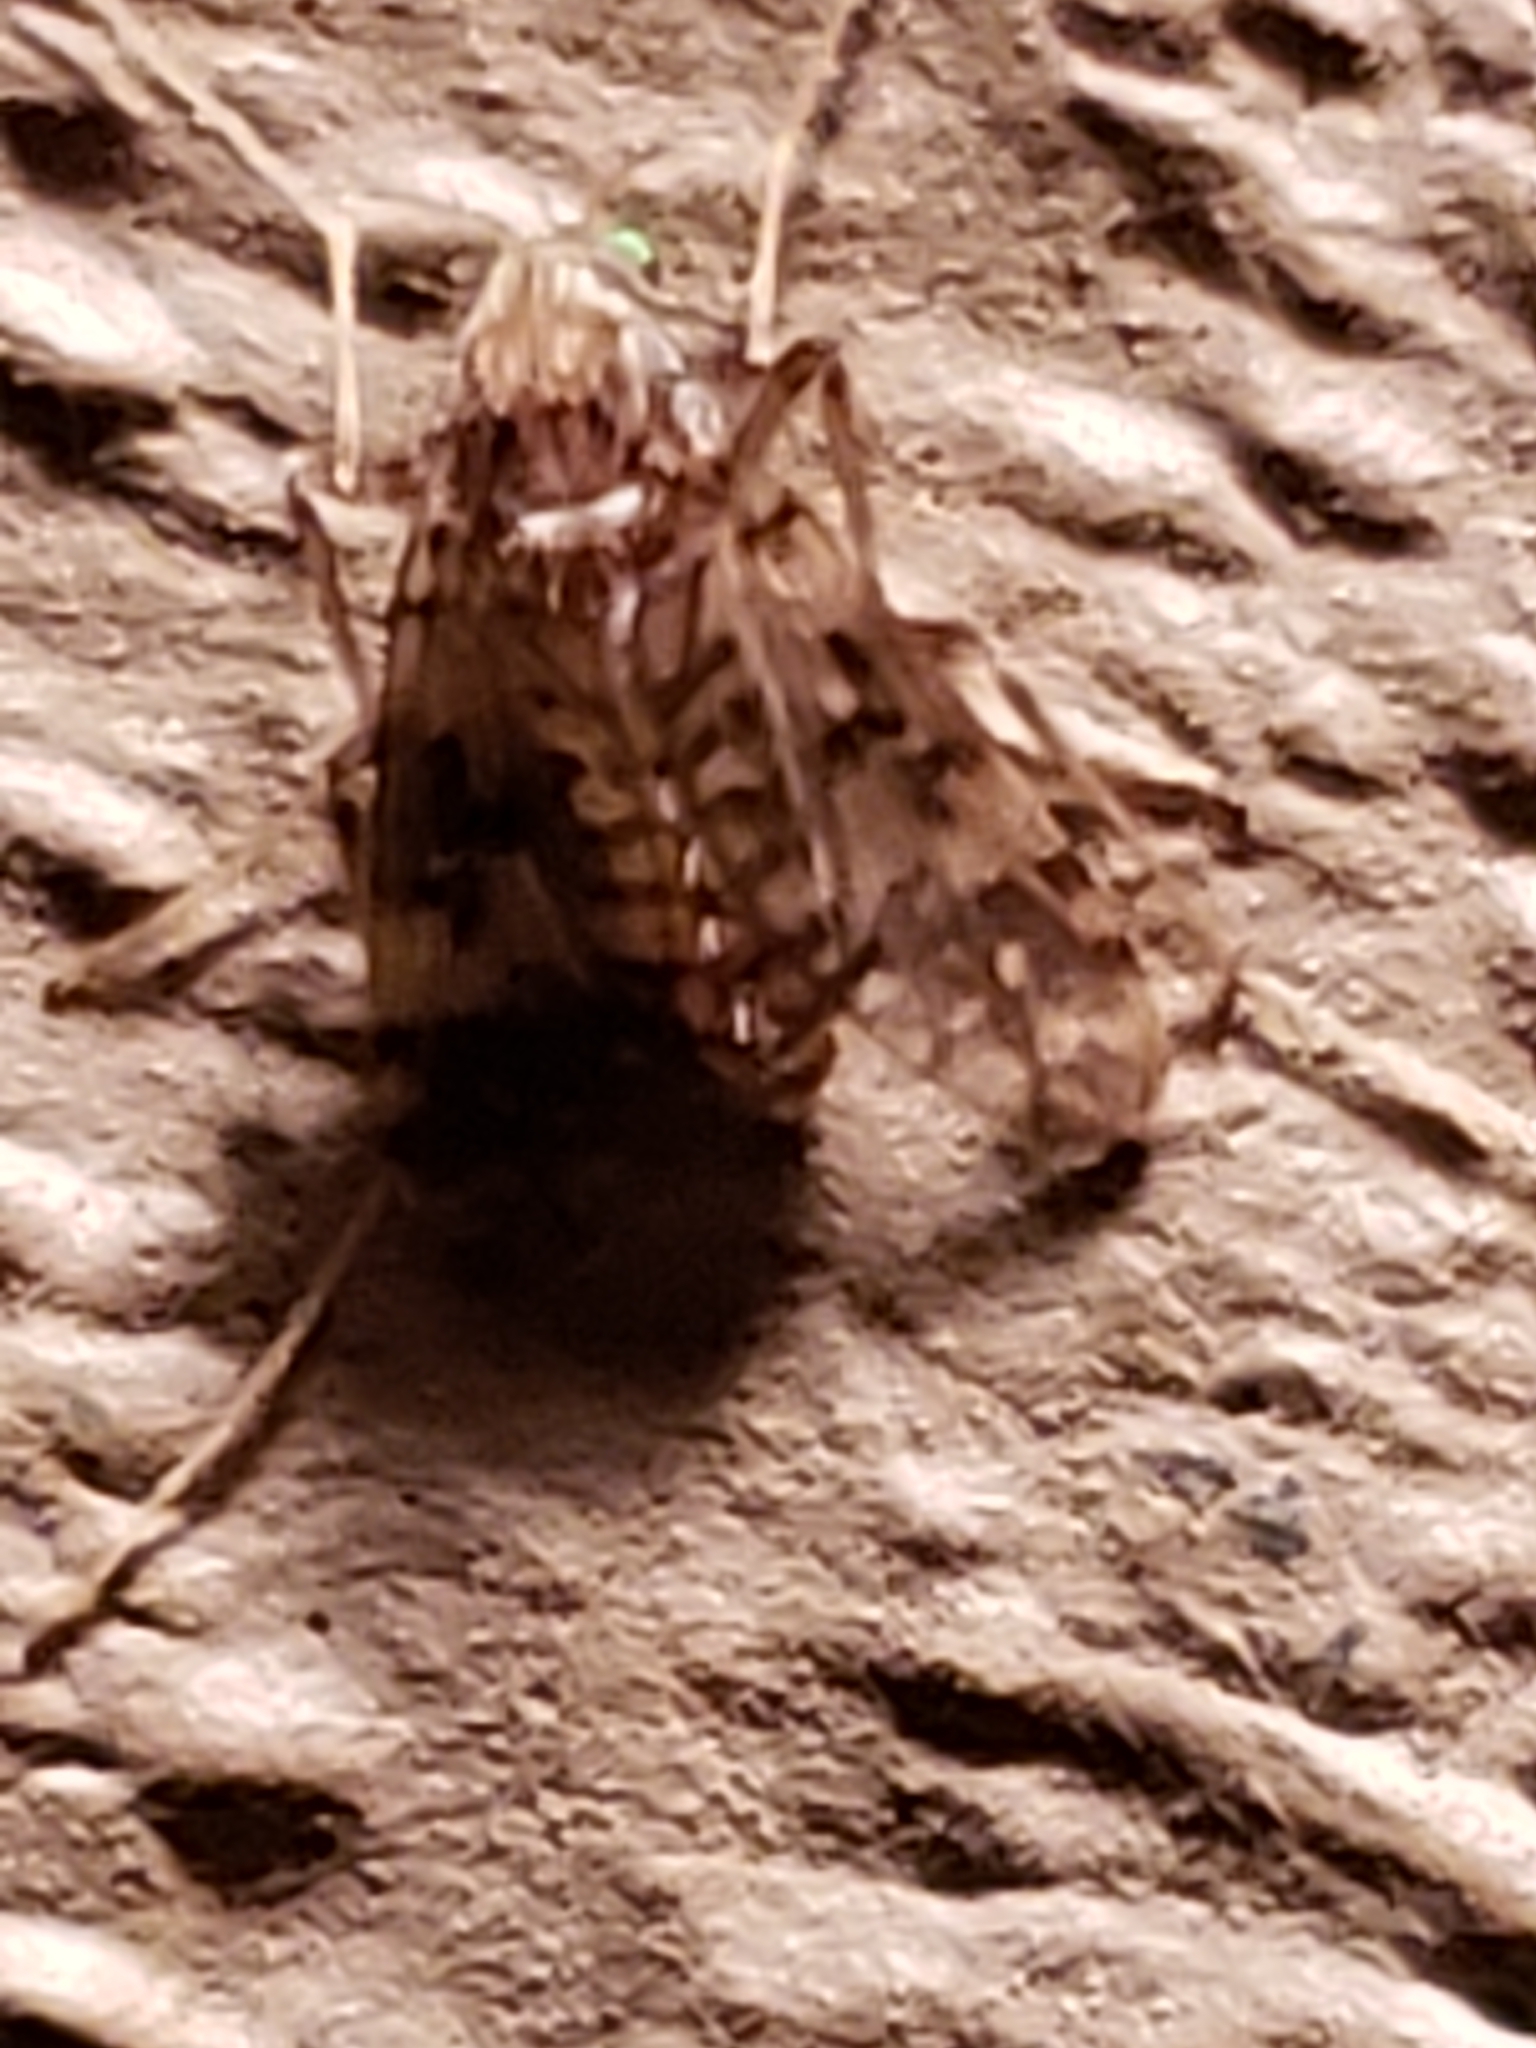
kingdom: Animalia
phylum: Arthropoda
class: Insecta
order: Diptera
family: Chironomidae
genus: Psectrotanypus
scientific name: Psectrotanypus dyari
